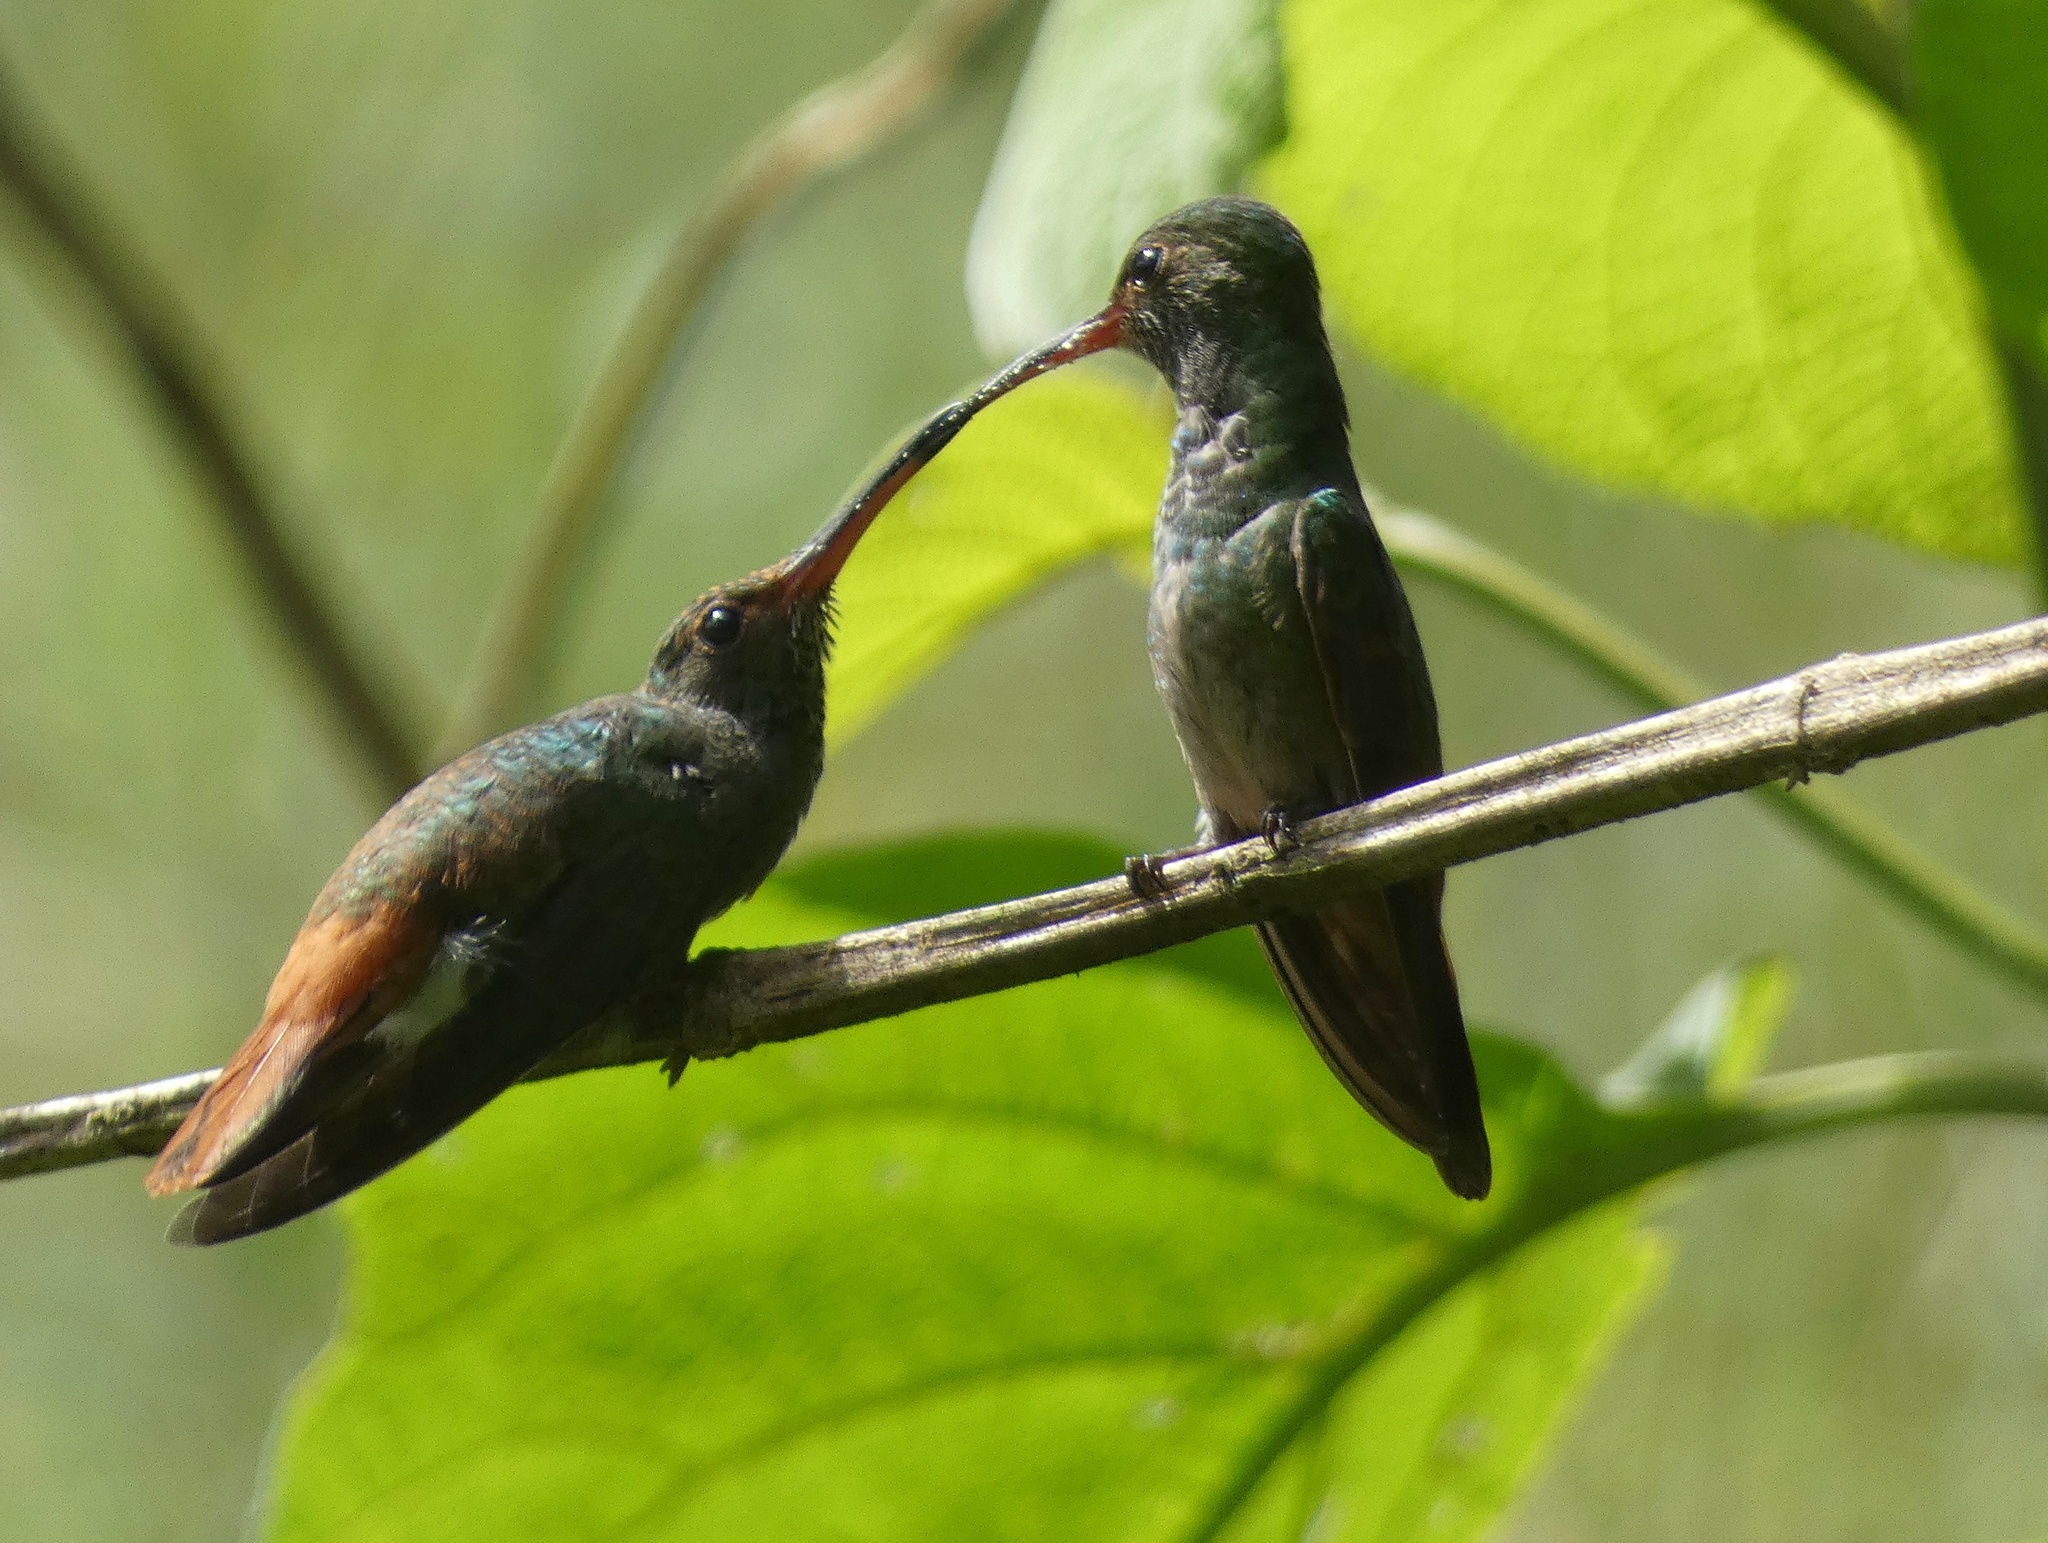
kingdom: Animalia
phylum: Chordata
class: Aves
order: Apodiformes
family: Trochilidae
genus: Amazilia
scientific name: Amazilia tzacatl
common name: Rufous-tailed hummingbird
